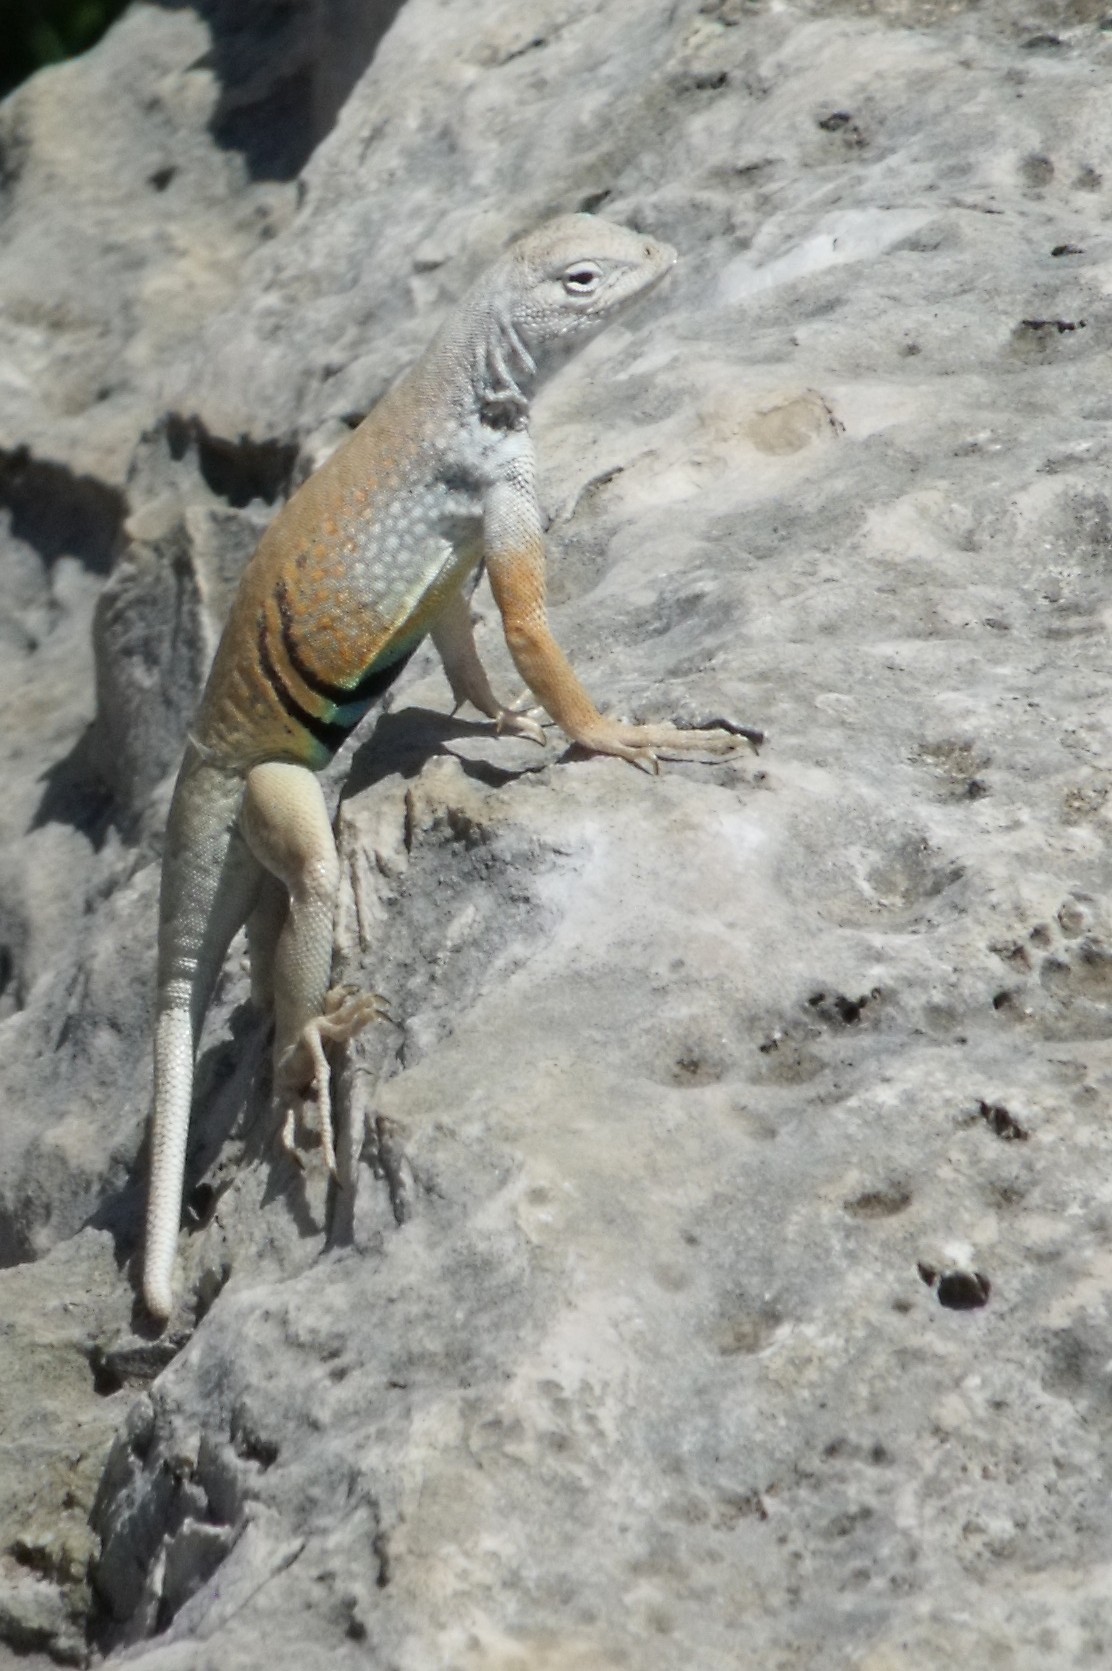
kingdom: Animalia
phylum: Chordata
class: Squamata
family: Phrynosomatidae
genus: Cophosaurus
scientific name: Cophosaurus texanus
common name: Greater earless lizard
